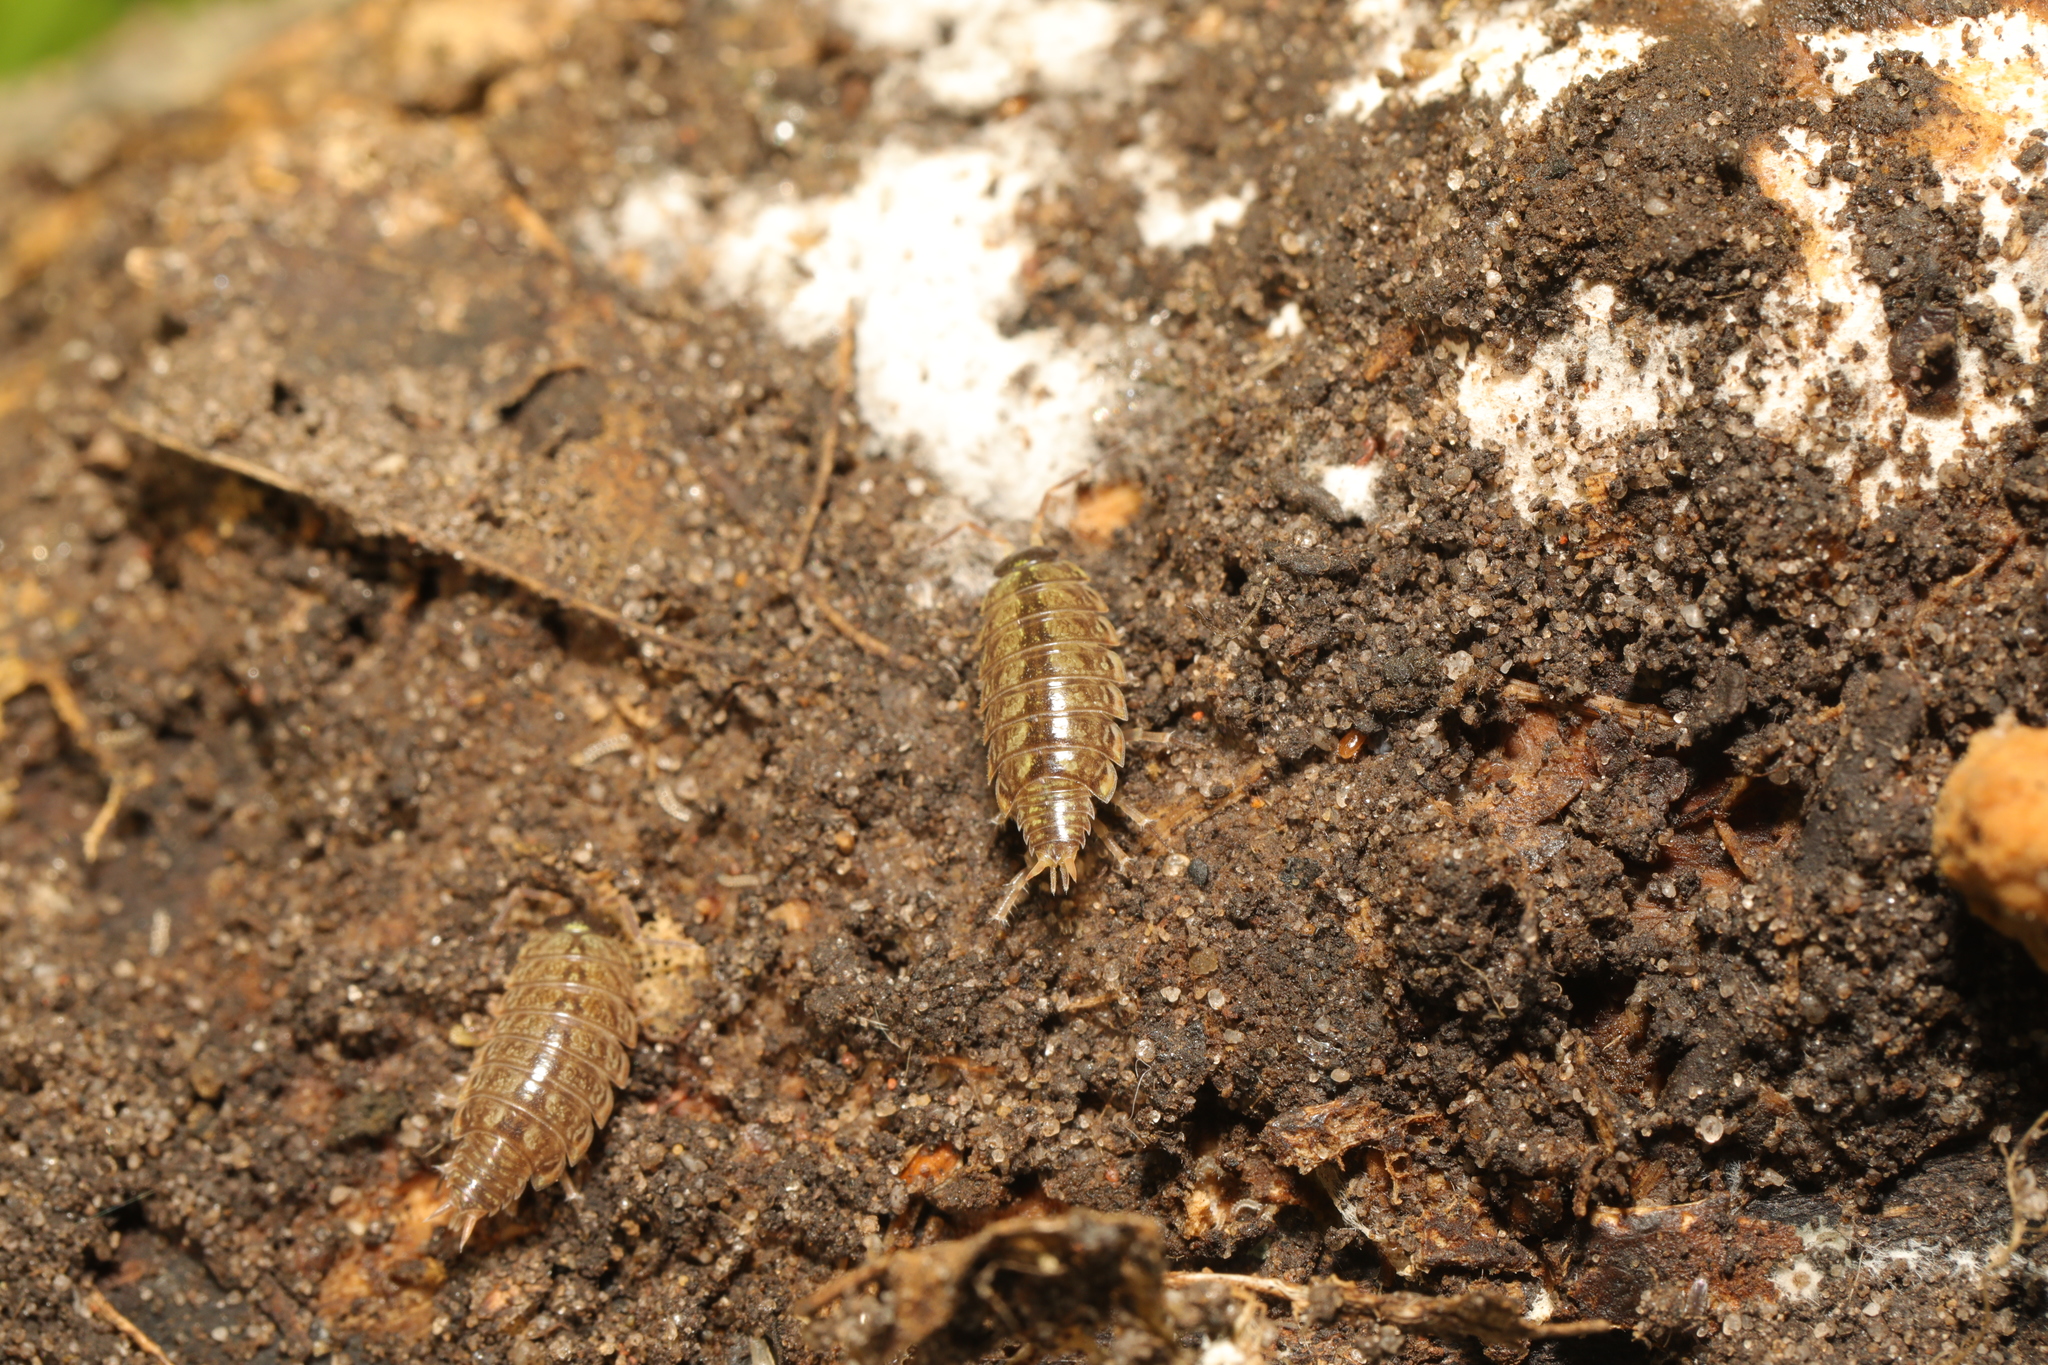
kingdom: Animalia
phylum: Arthropoda
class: Malacostraca
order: Isopoda
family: Philosciidae
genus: Philoscia
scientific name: Philoscia muscorum
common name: Common striped woodlouse
